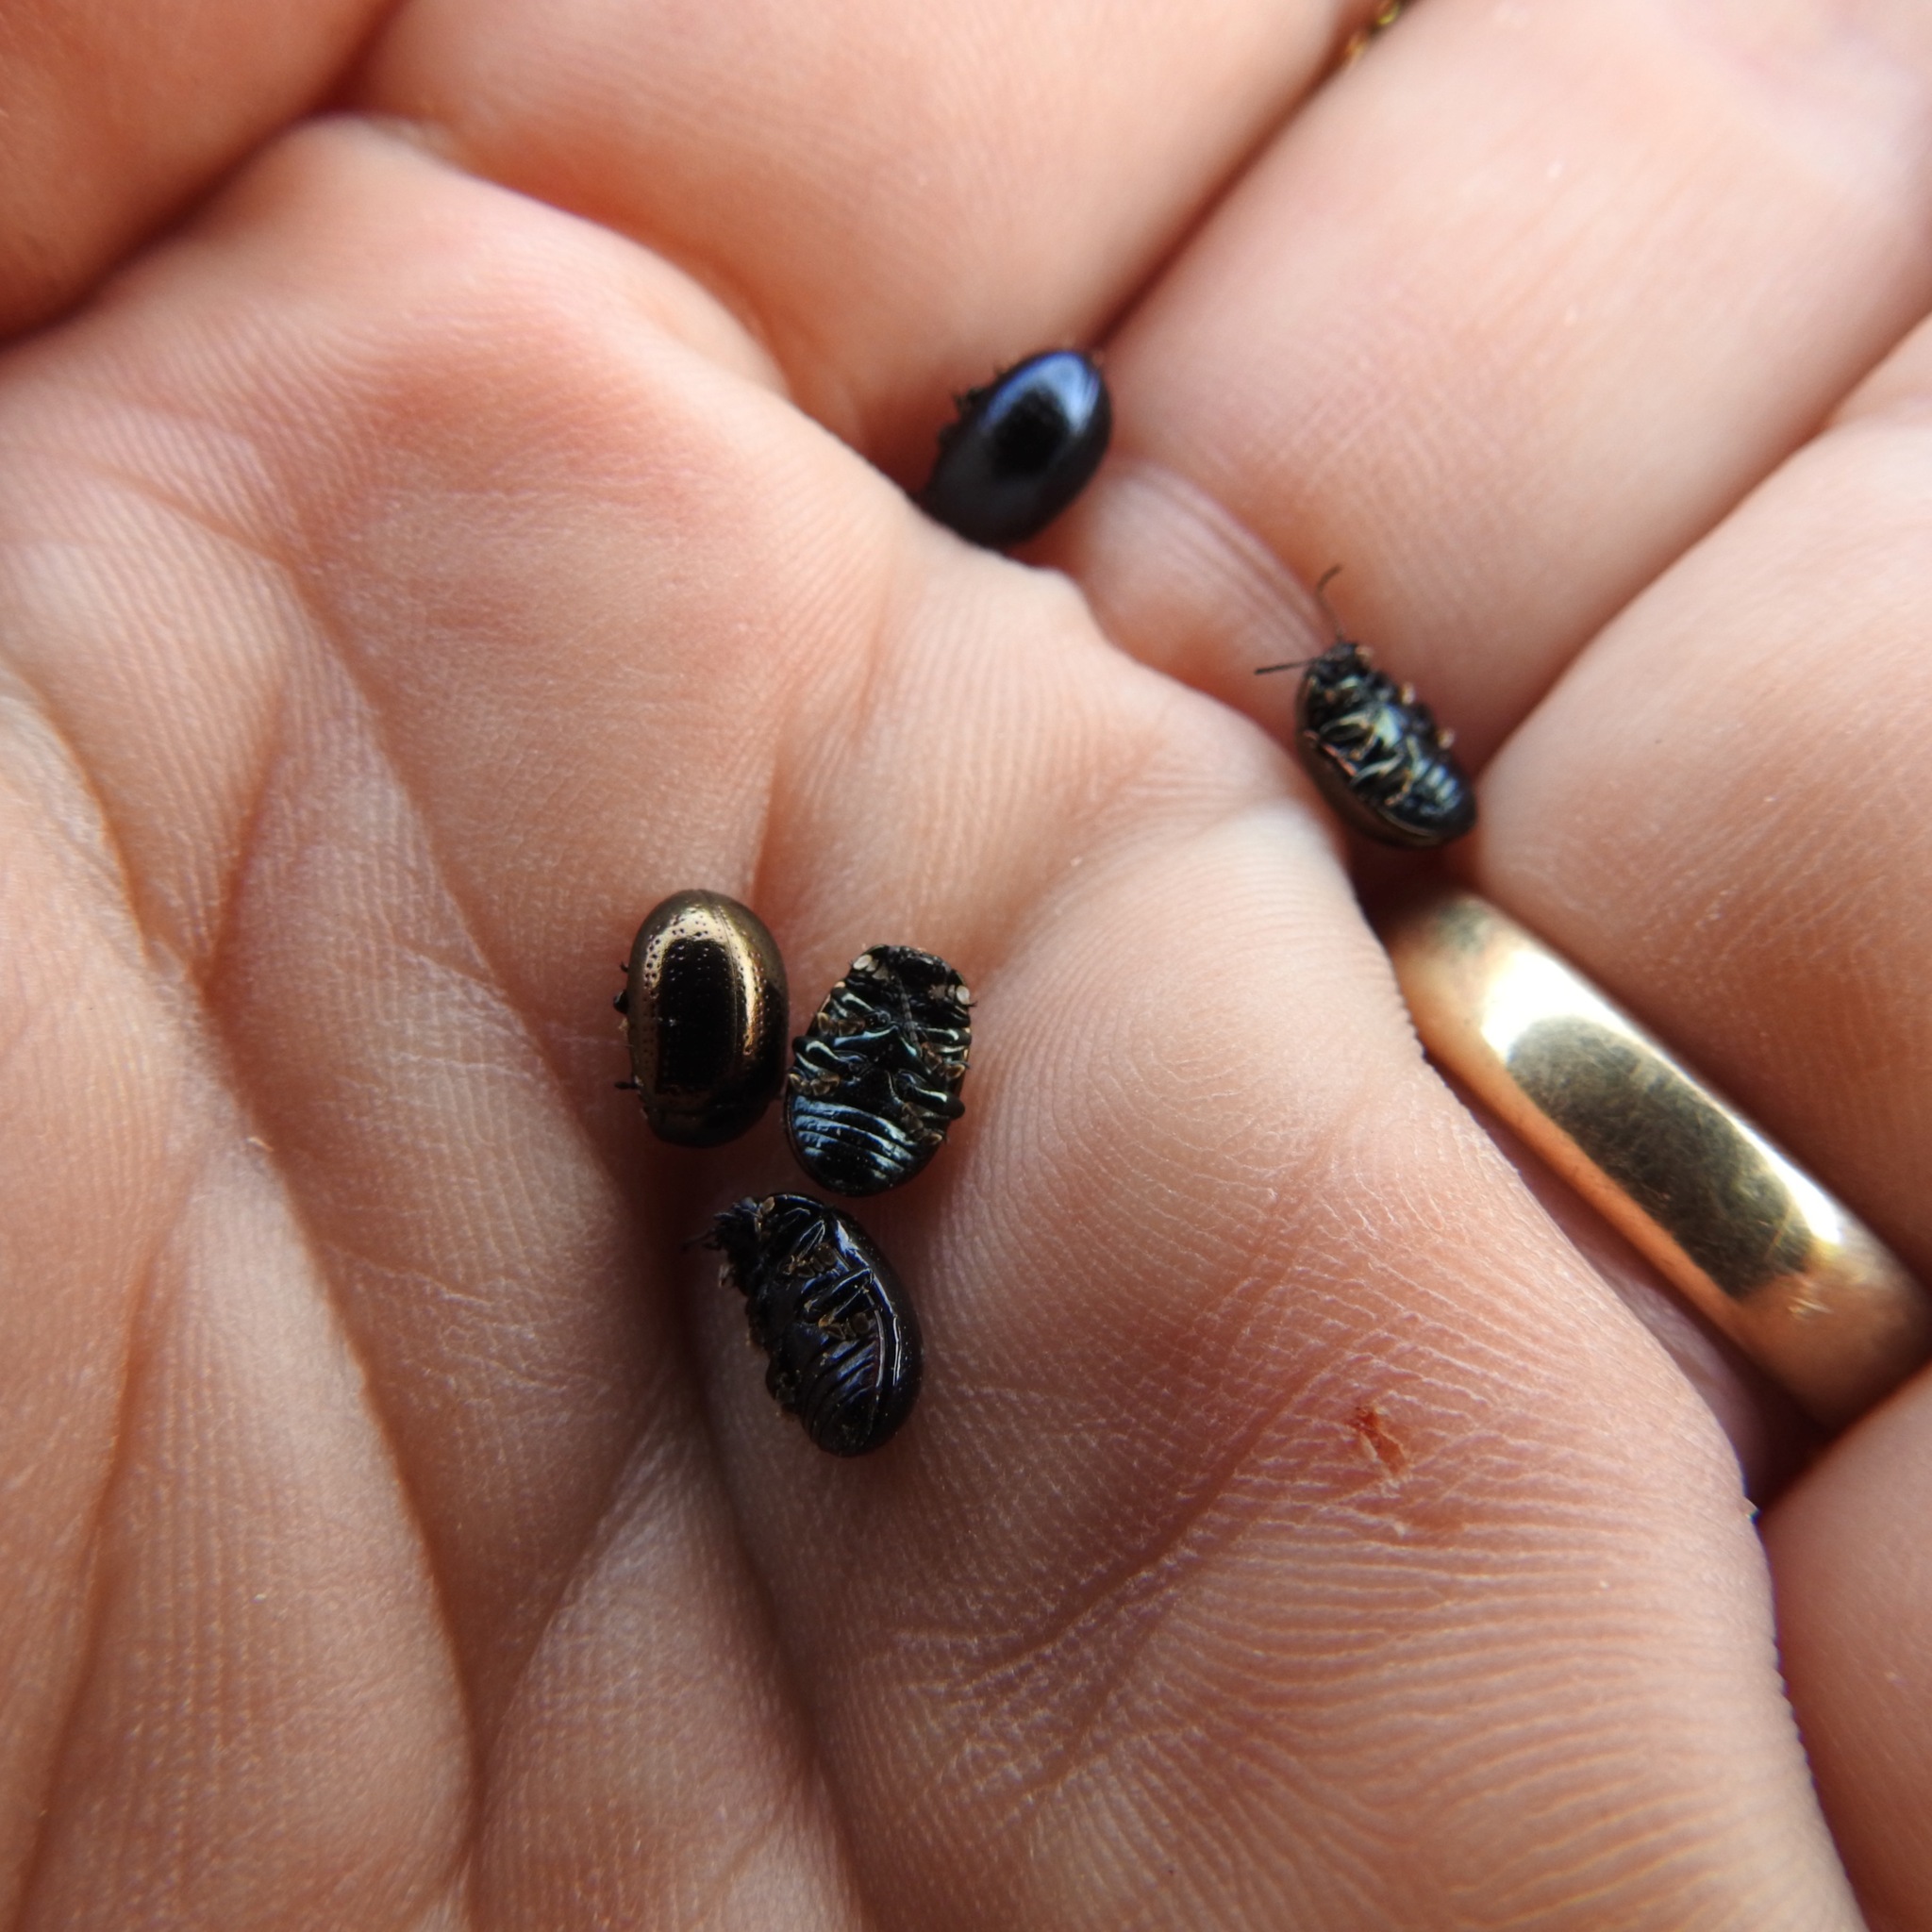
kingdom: Animalia
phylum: Arthropoda
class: Insecta
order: Coleoptera
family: Chrysomelidae
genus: Chrysolina
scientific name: Chrysolina hyperici
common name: St. johnswort beetle
